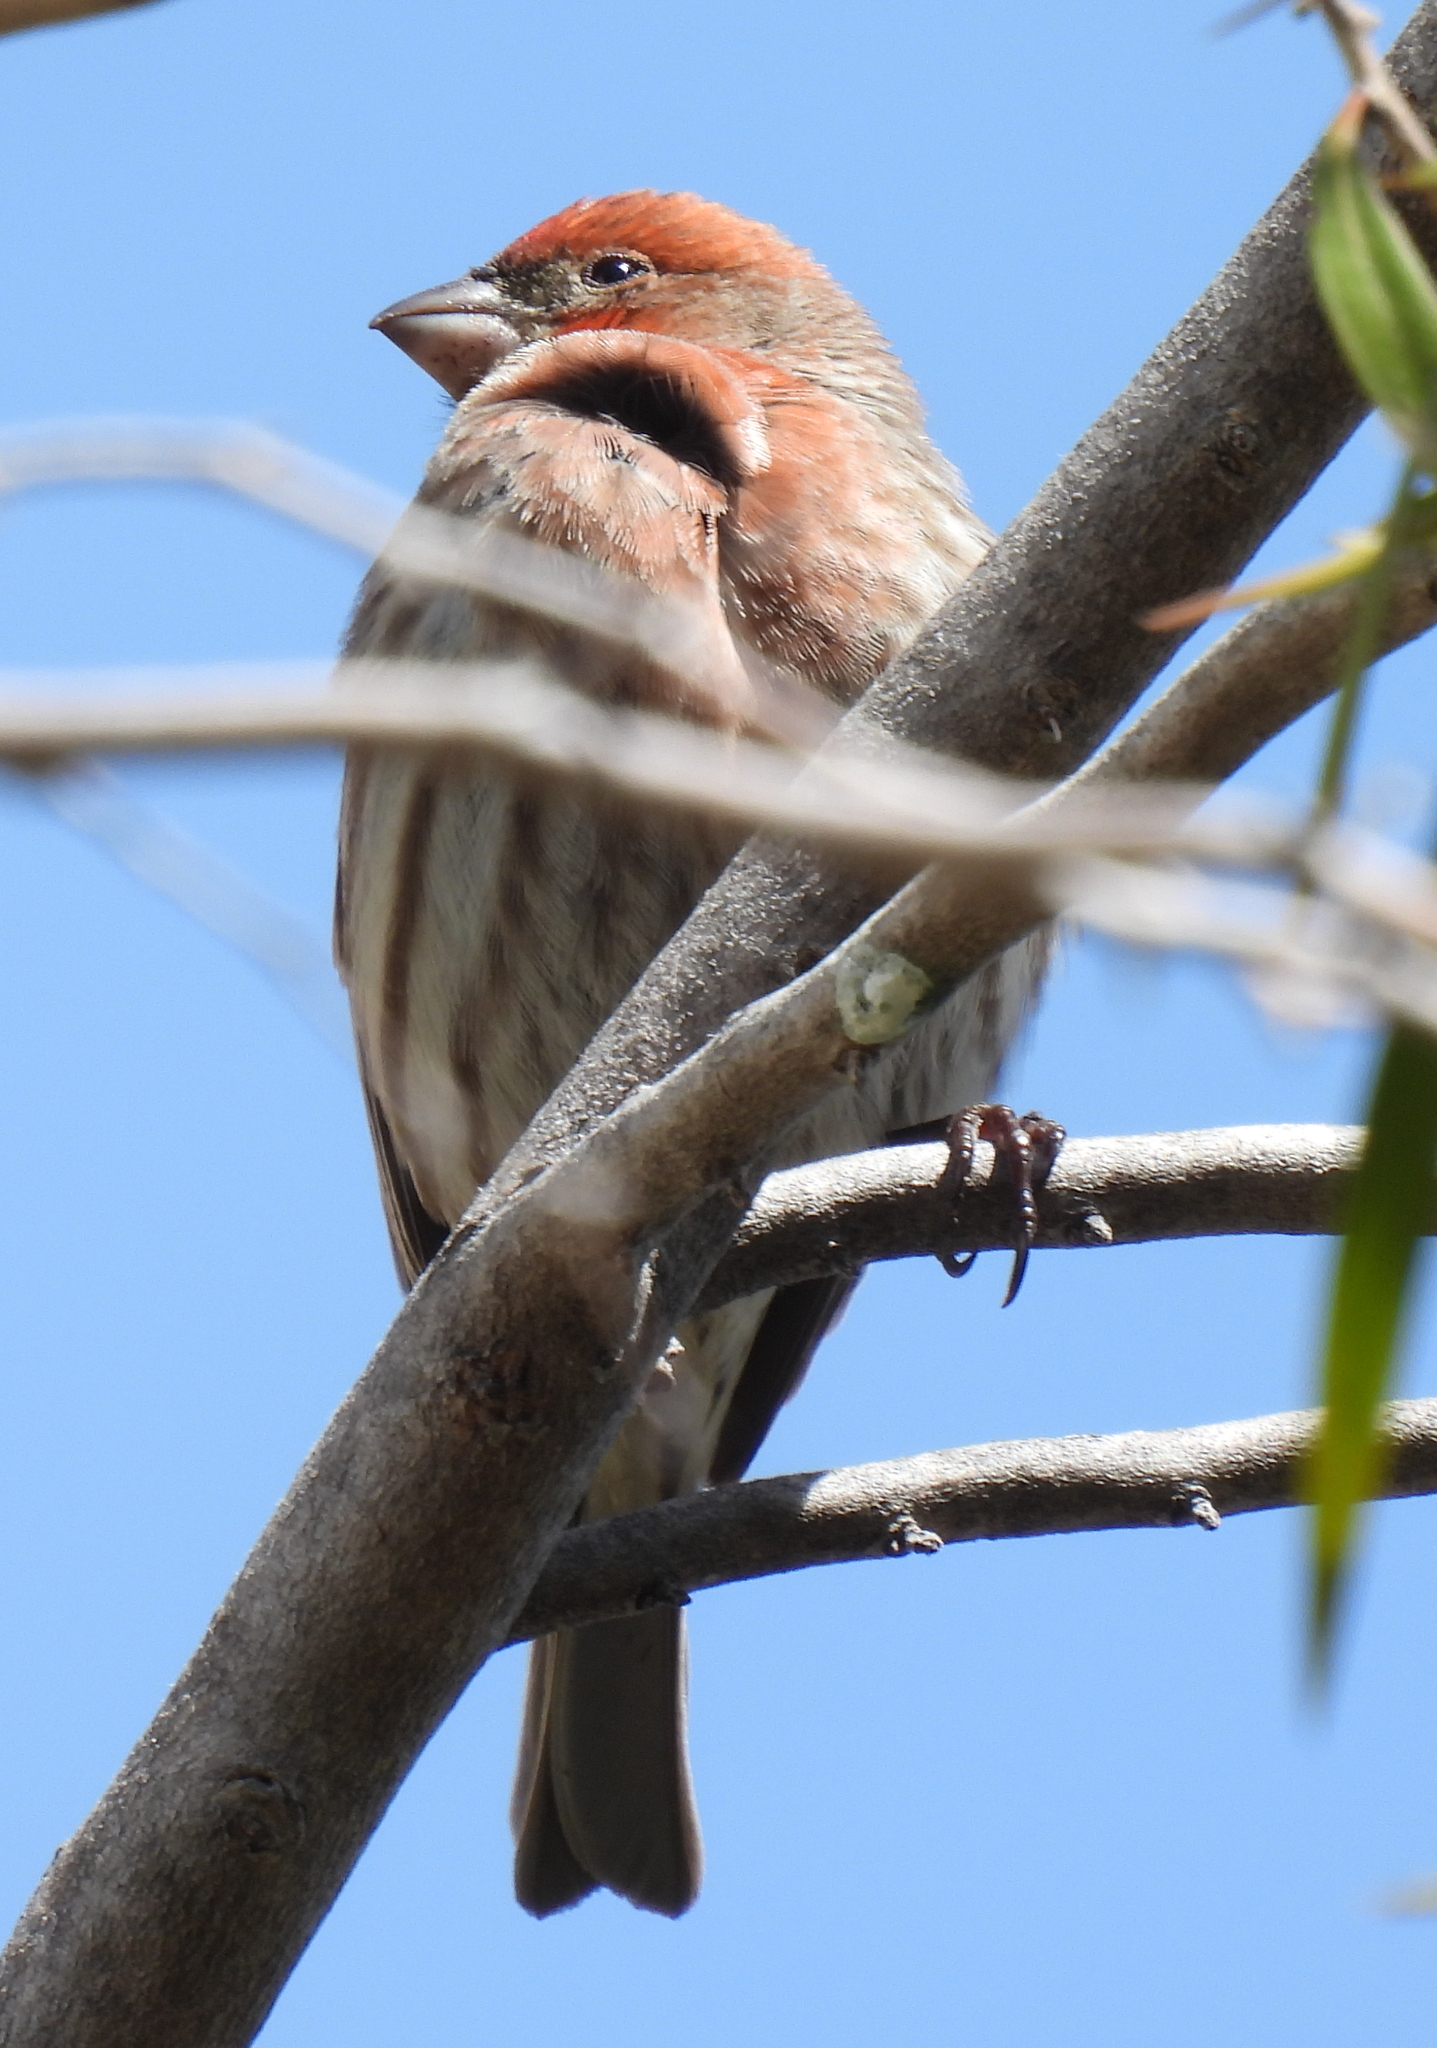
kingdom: Animalia
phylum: Chordata
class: Aves
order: Passeriformes
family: Fringillidae
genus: Haemorhous
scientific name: Haemorhous mexicanus
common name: House finch
